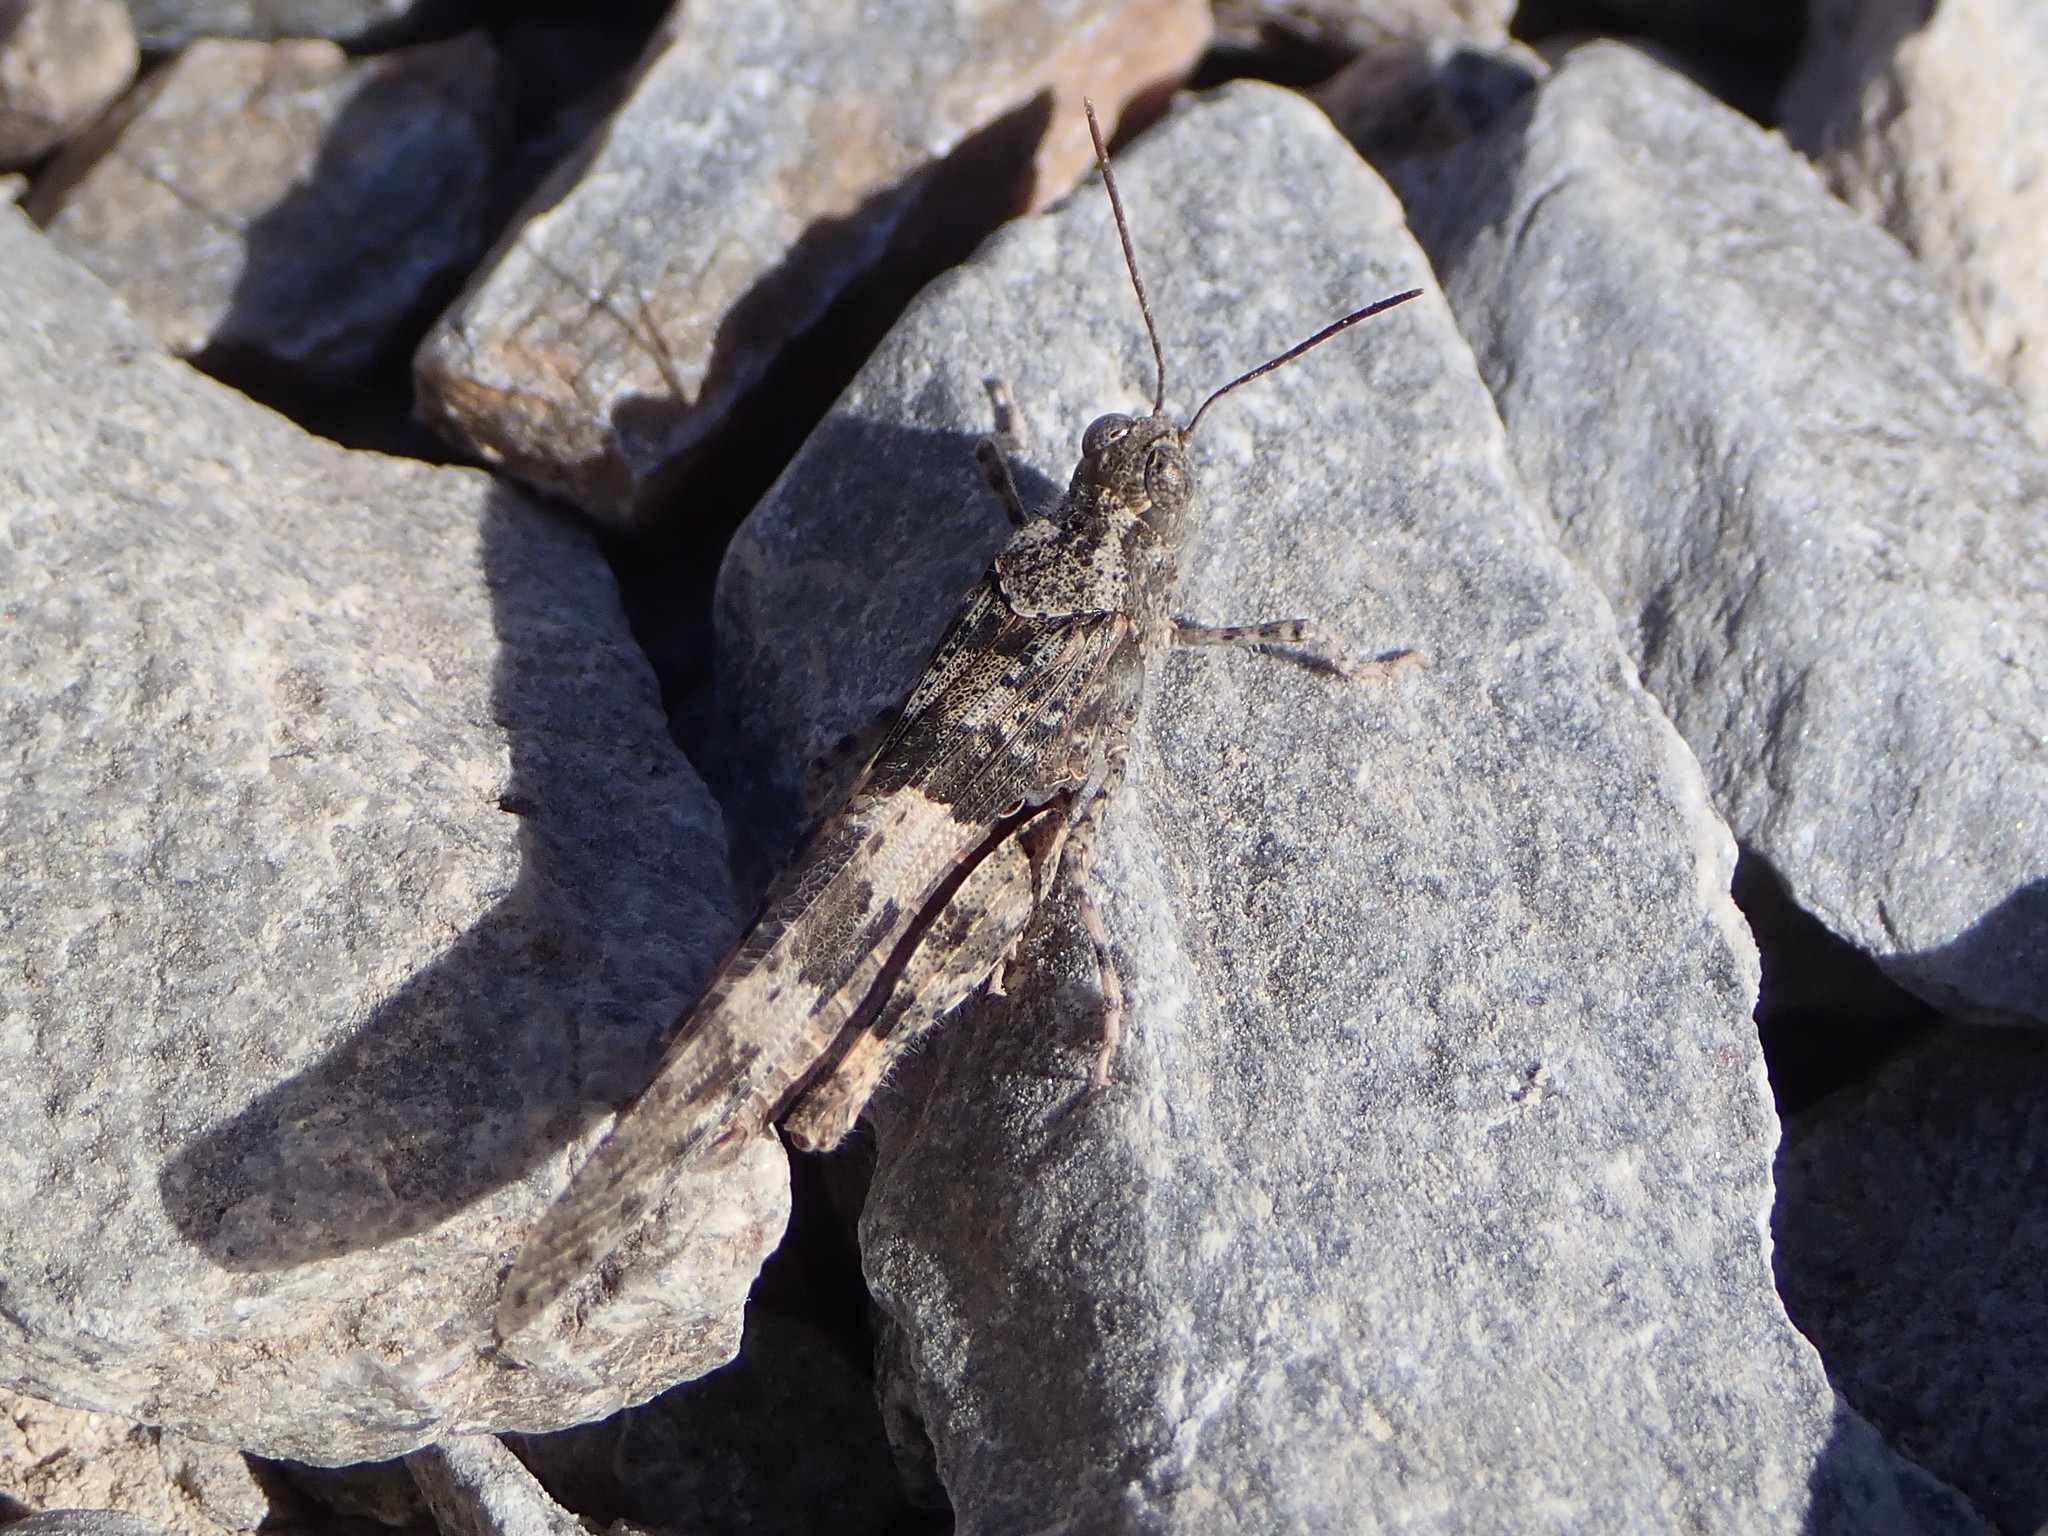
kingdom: Animalia
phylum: Arthropoda
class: Insecta
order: Orthoptera
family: Acrididae
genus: Trimerotropis
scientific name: Trimerotropis pallidipennis
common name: Pallid-winged grasshopper
